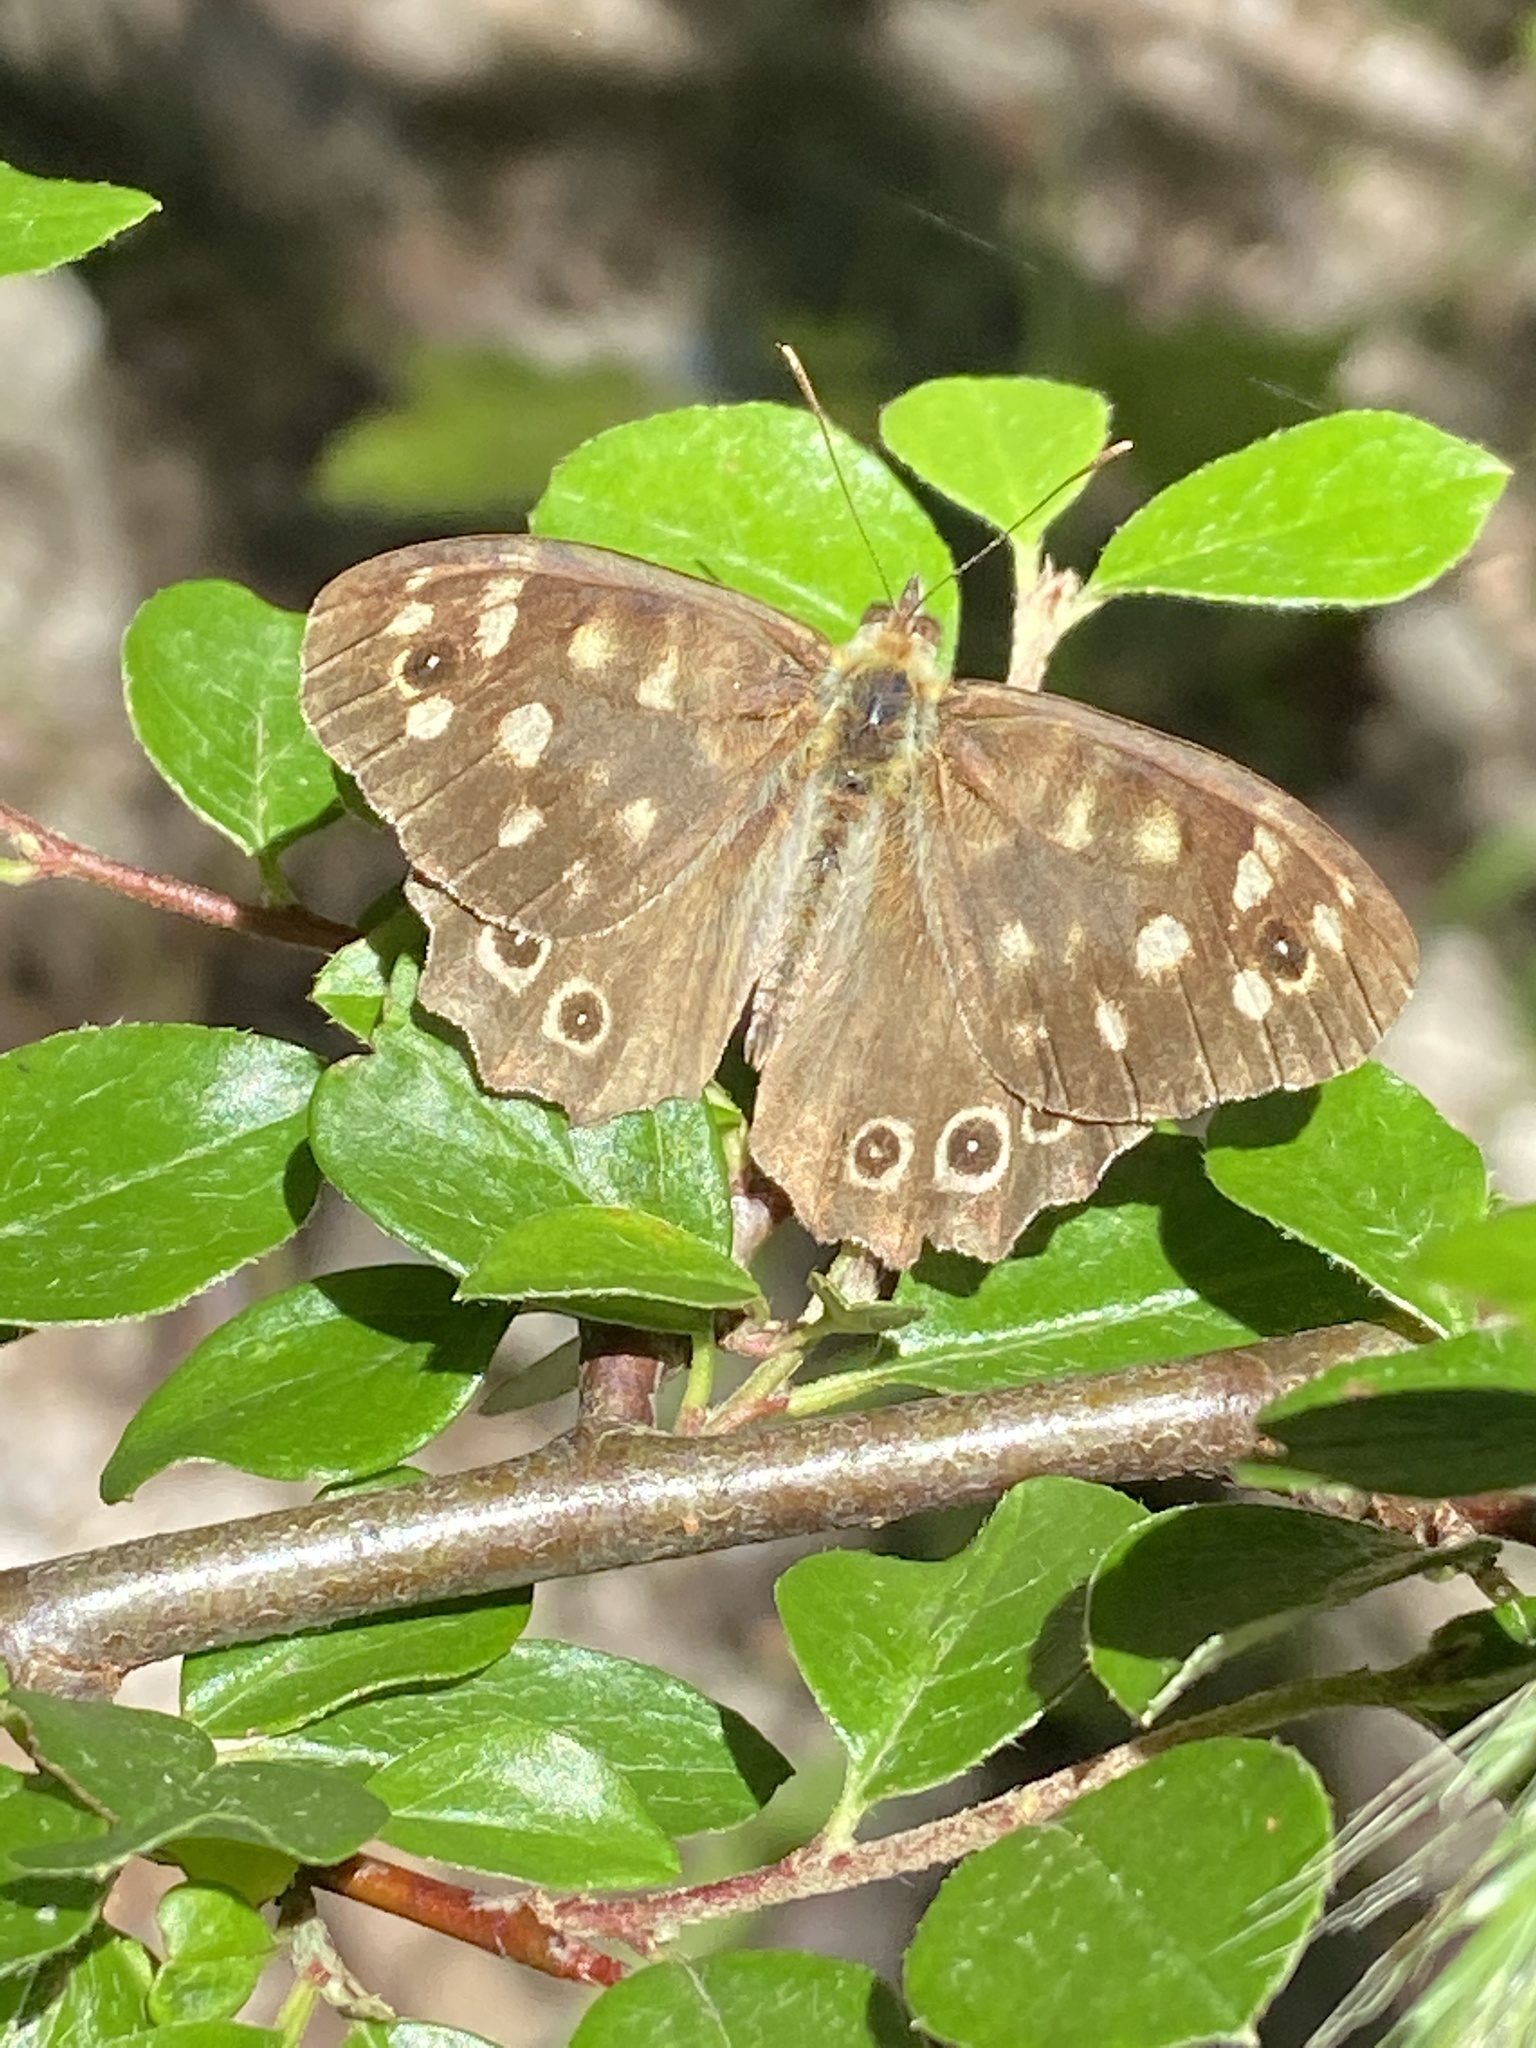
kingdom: Animalia
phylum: Arthropoda
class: Insecta
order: Lepidoptera
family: Nymphalidae
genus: Pararge
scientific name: Pararge aegeria
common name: Speckled wood
